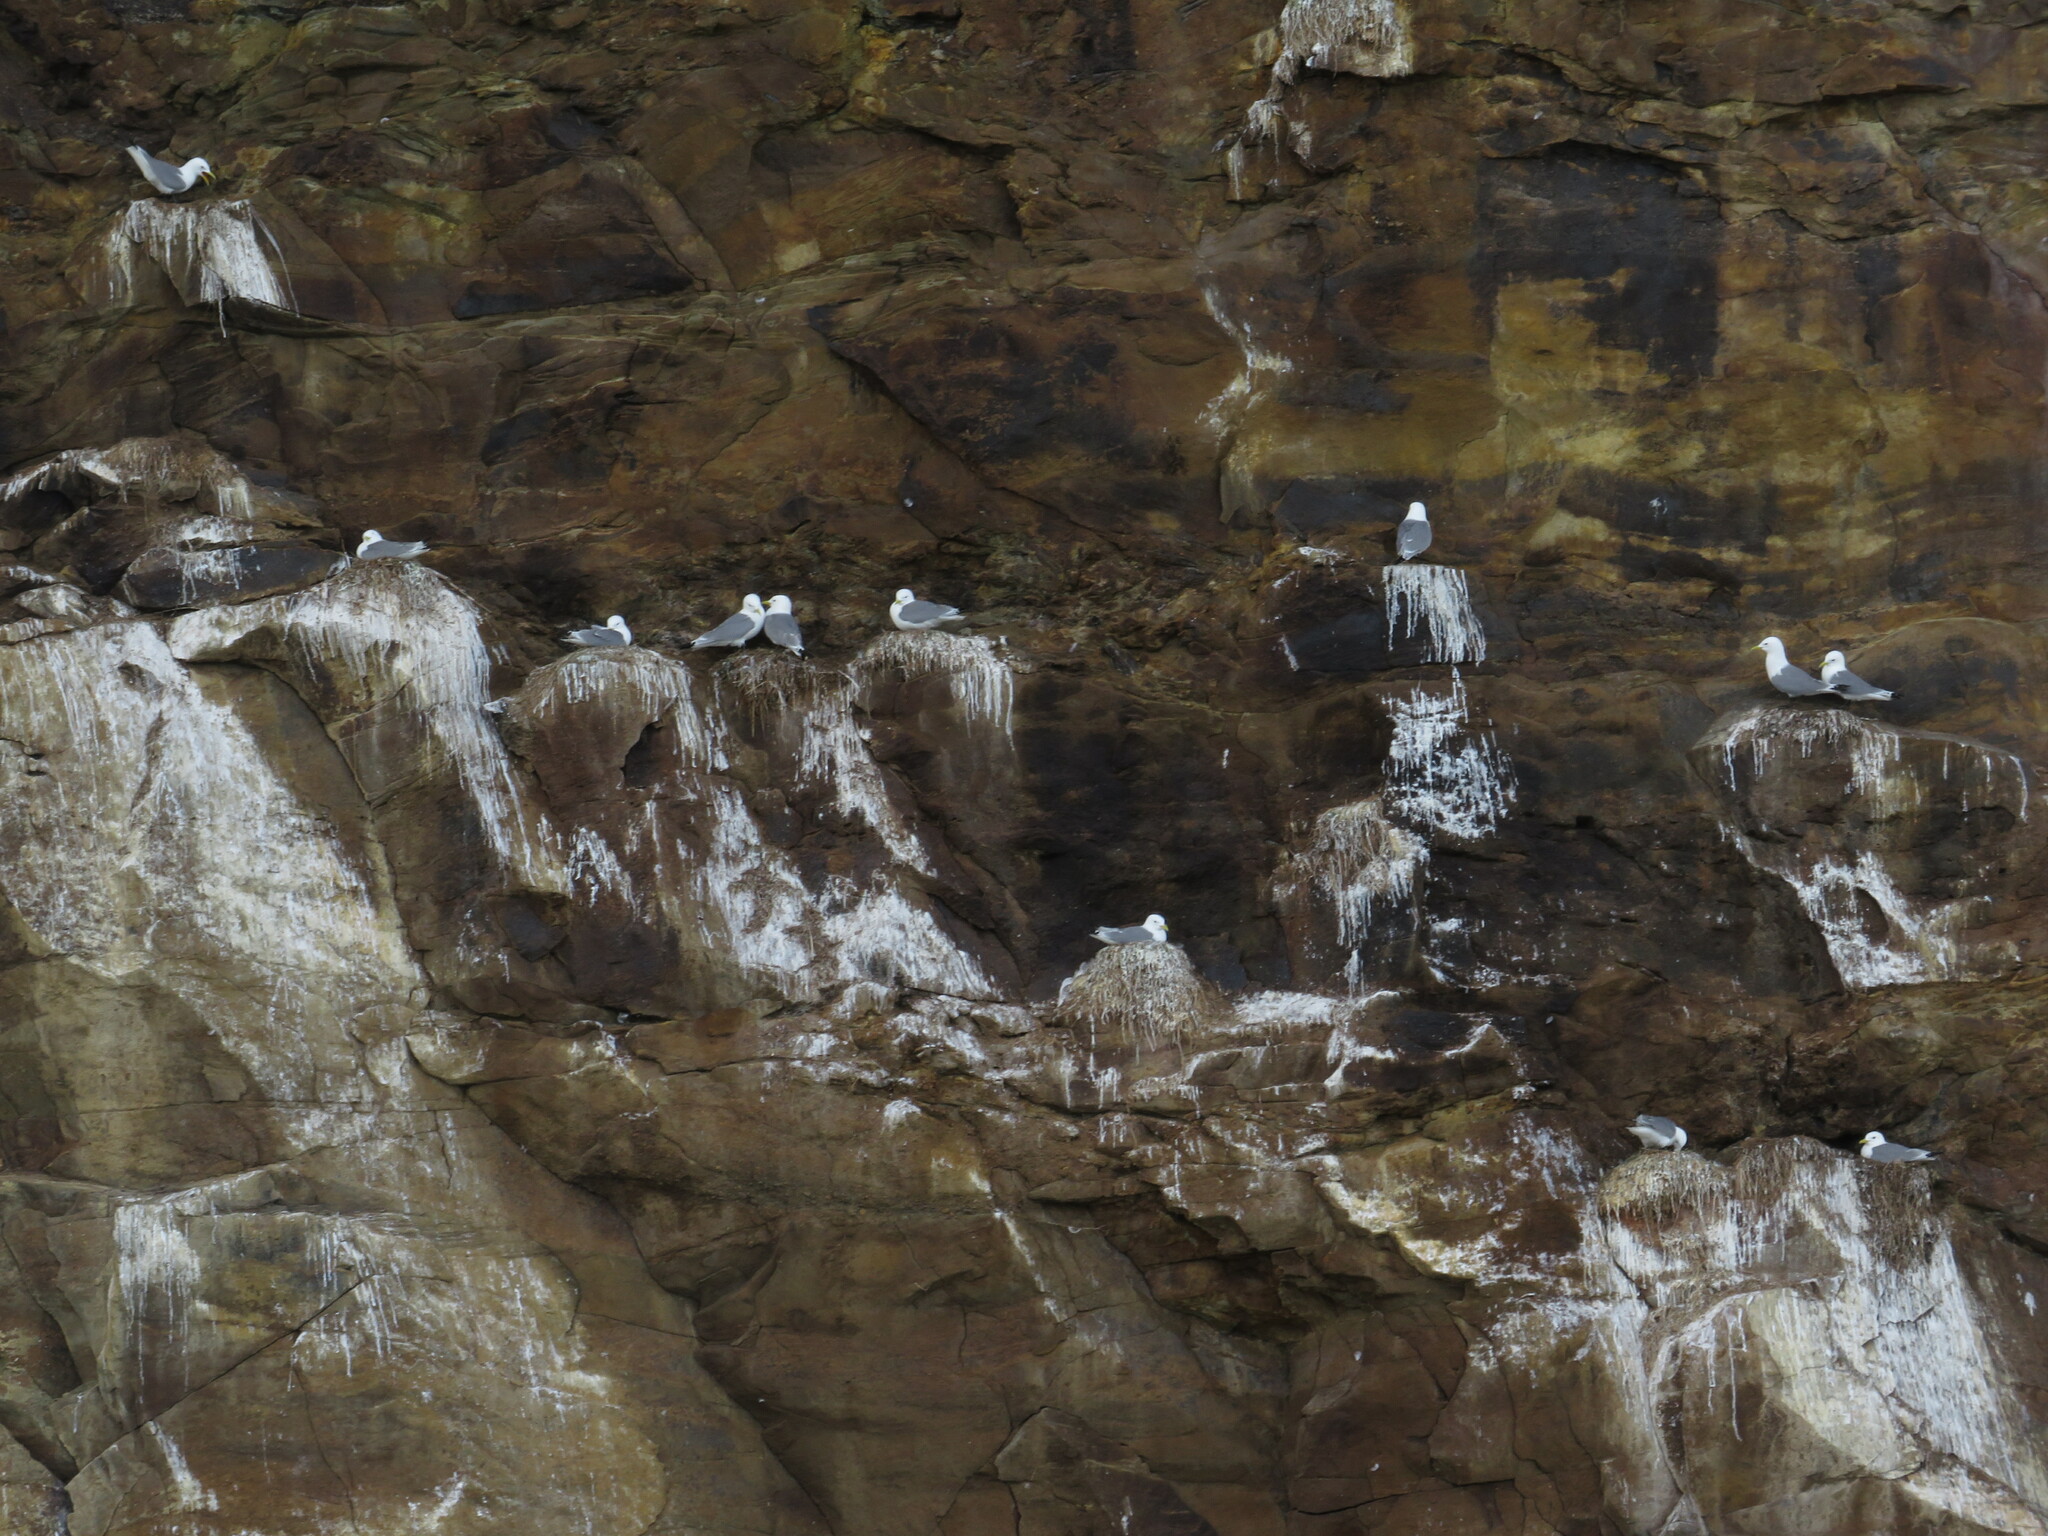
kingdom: Animalia
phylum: Chordata
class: Aves
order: Charadriiformes
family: Laridae
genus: Rissa
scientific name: Rissa tridactyla
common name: Black-legged kittiwake
